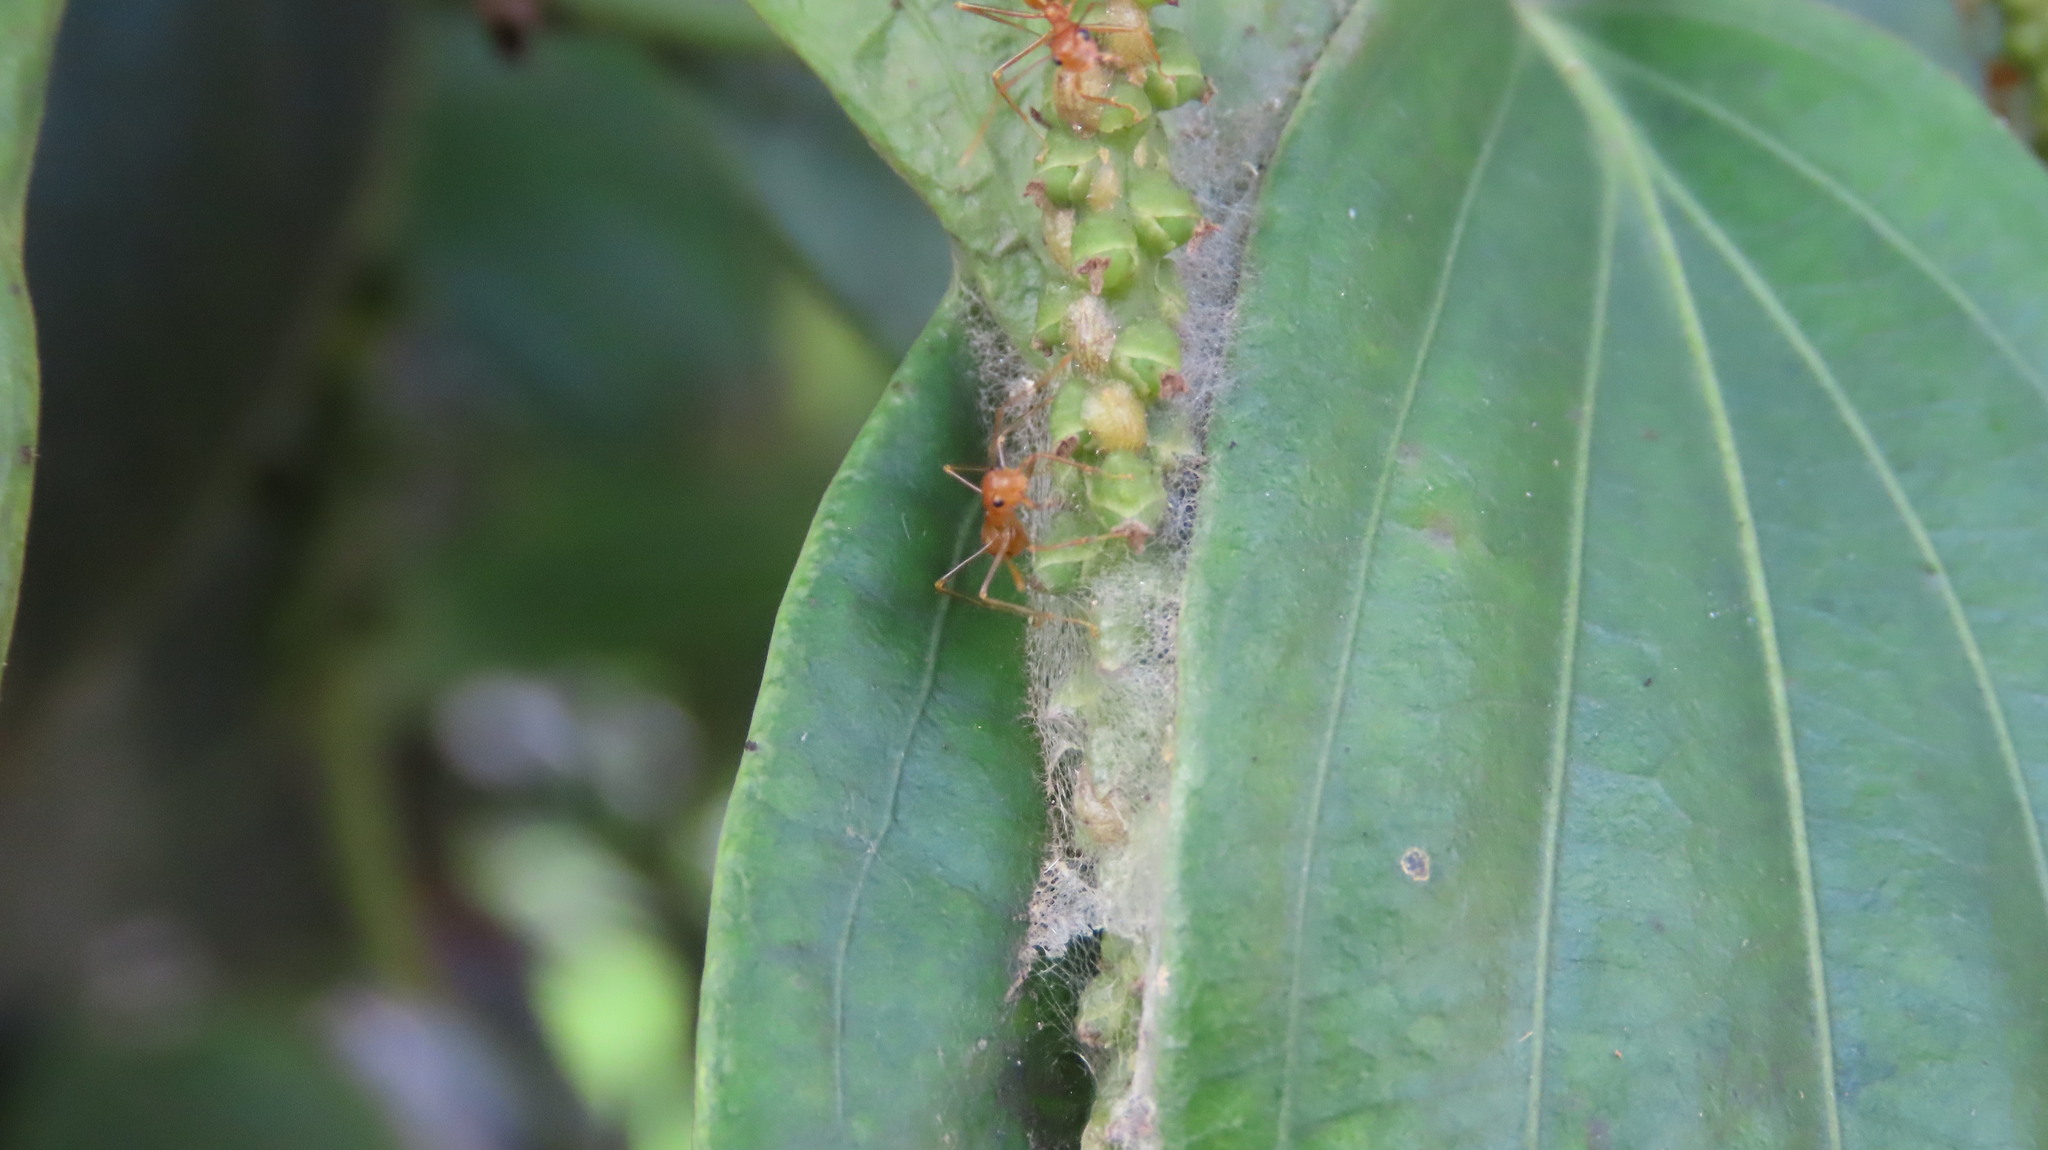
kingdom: Animalia
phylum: Arthropoda
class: Insecta
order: Hymenoptera
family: Formicidae
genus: Oecophylla
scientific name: Oecophylla smaragdina
